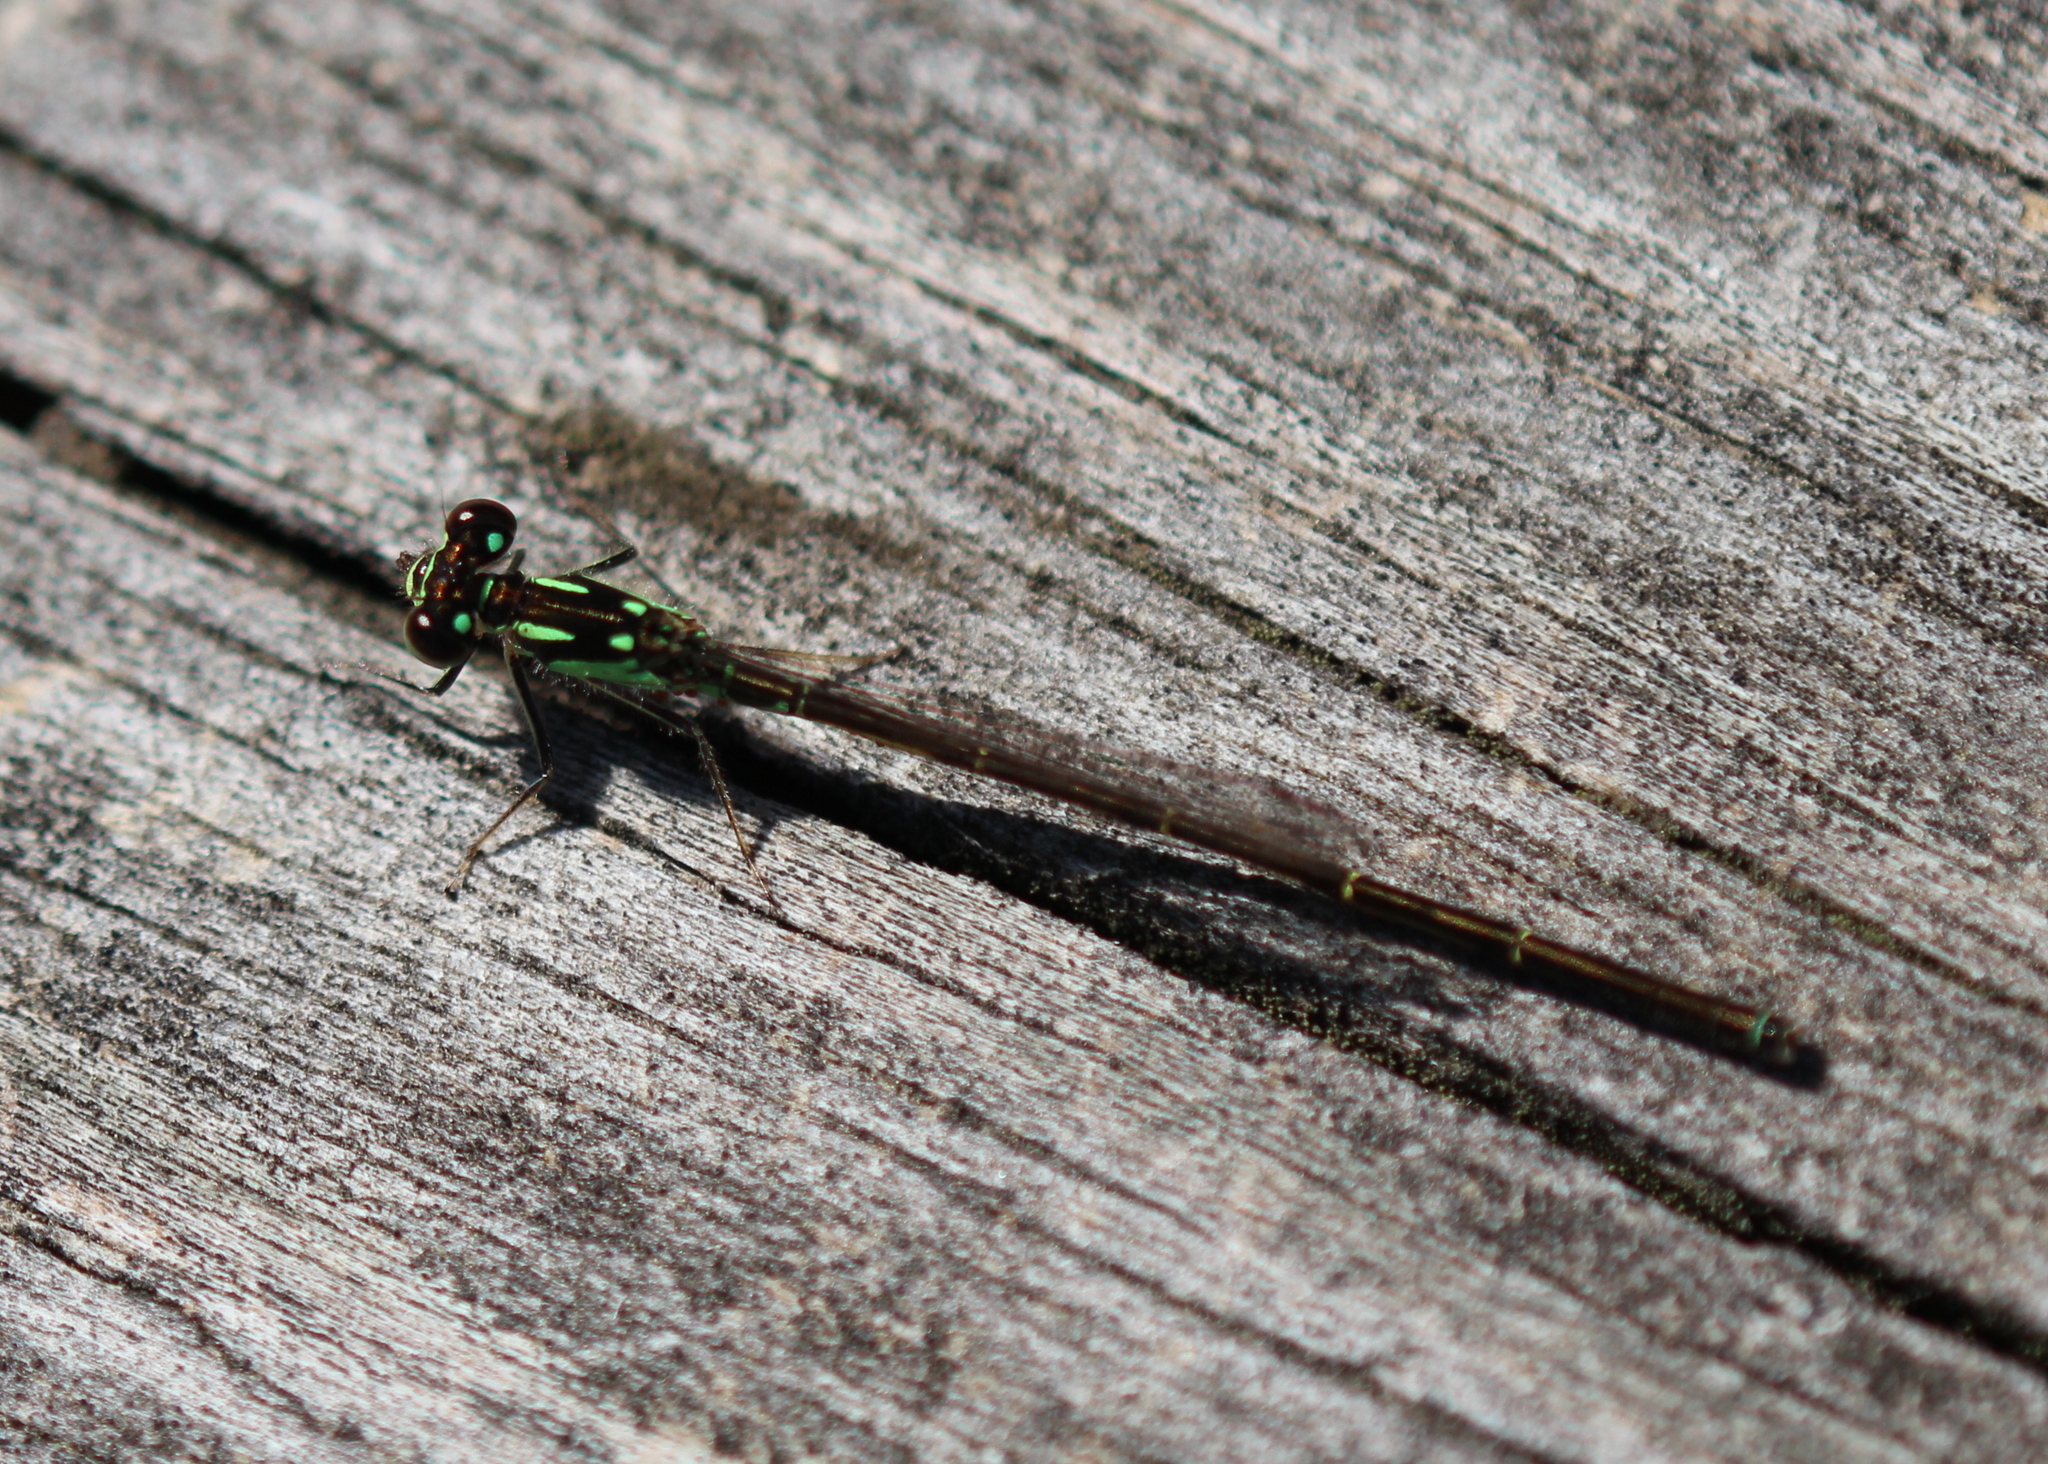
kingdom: Animalia
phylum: Arthropoda
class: Insecta
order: Odonata
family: Coenagrionidae
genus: Ischnura
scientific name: Ischnura posita
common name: Fragile forktail
